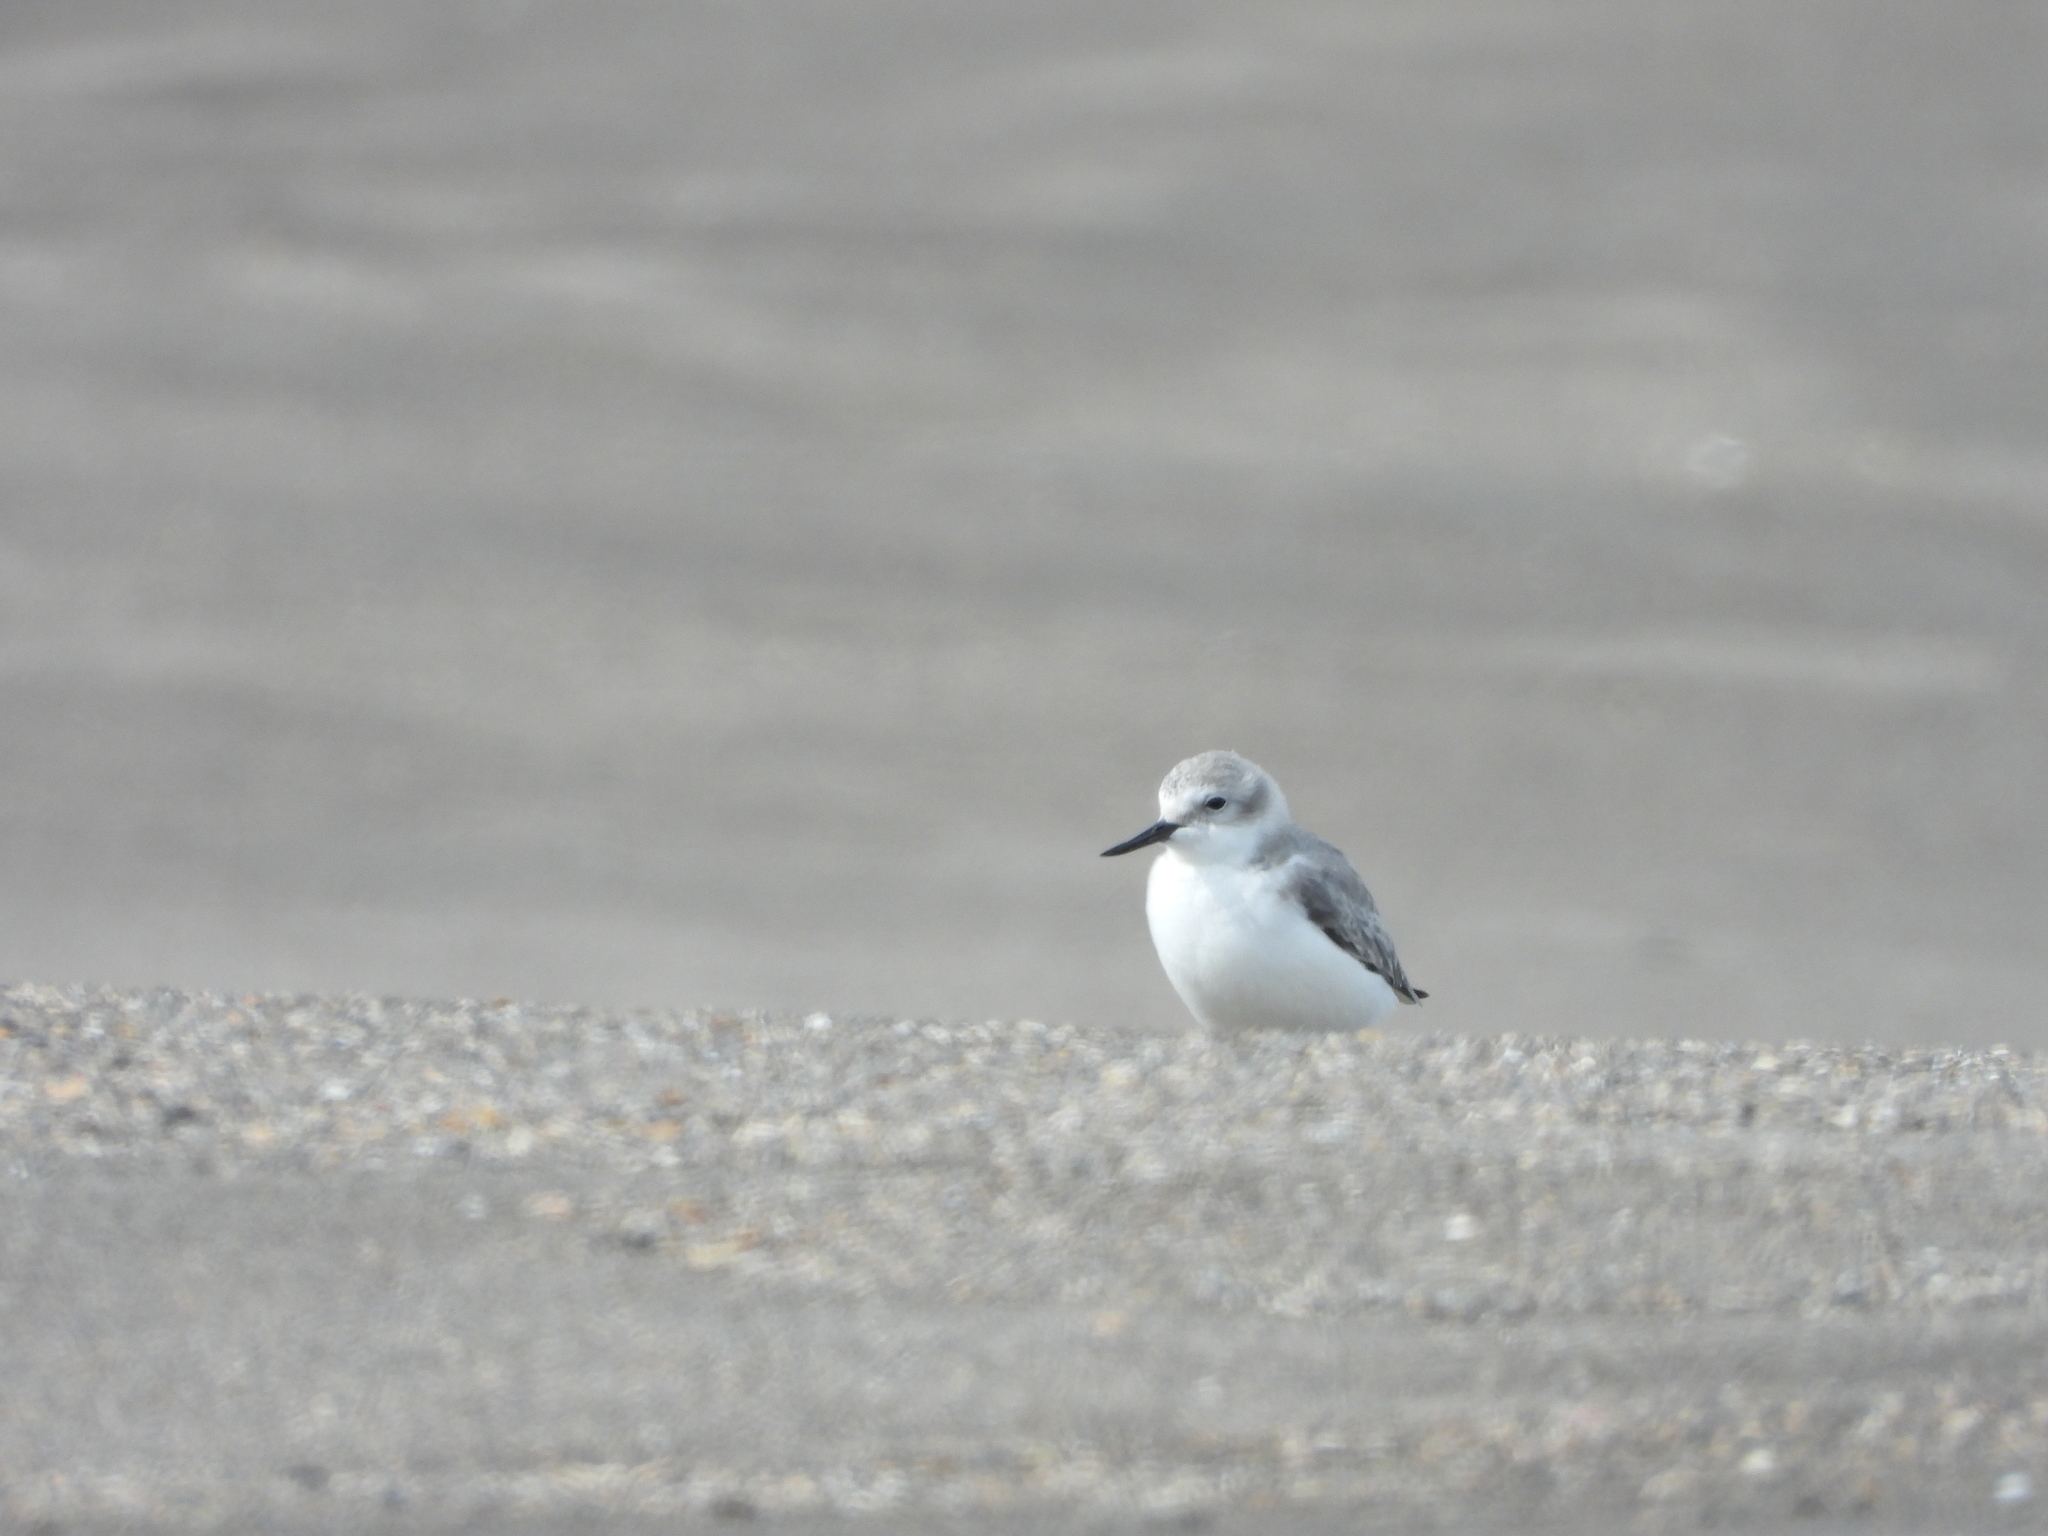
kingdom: Animalia
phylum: Chordata
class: Aves
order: Charadriiformes
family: Charadriidae
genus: Anarhynchus
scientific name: Anarhynchus frontalis
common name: Wrybill
